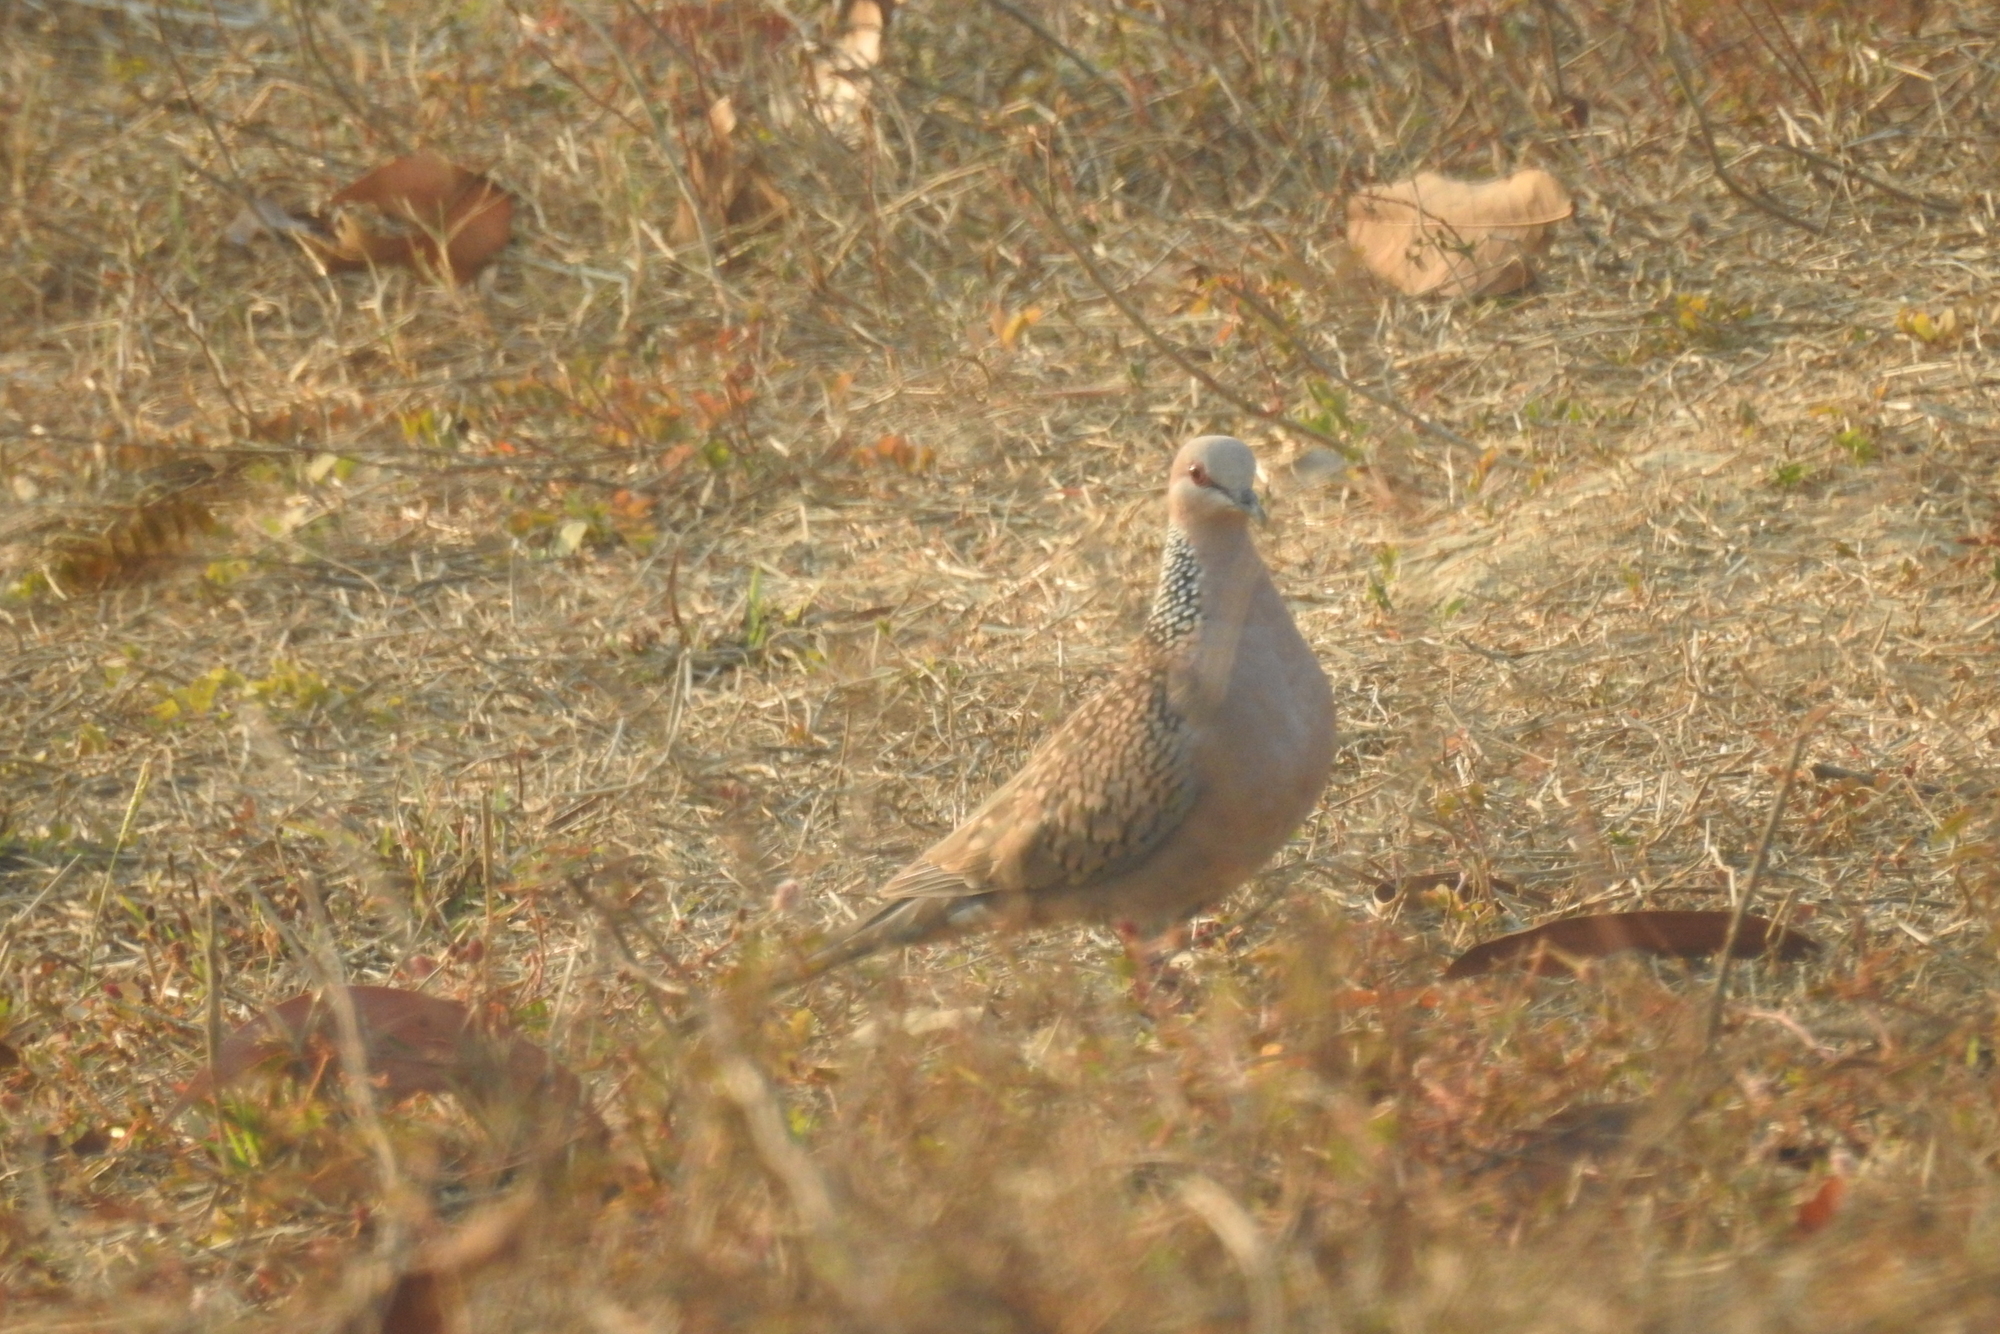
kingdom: Animalia
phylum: Chordata
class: Aves
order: Columbiformes
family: Columbidae
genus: Spilopelia
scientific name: Spilopelia chinensis
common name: Spotted dove
